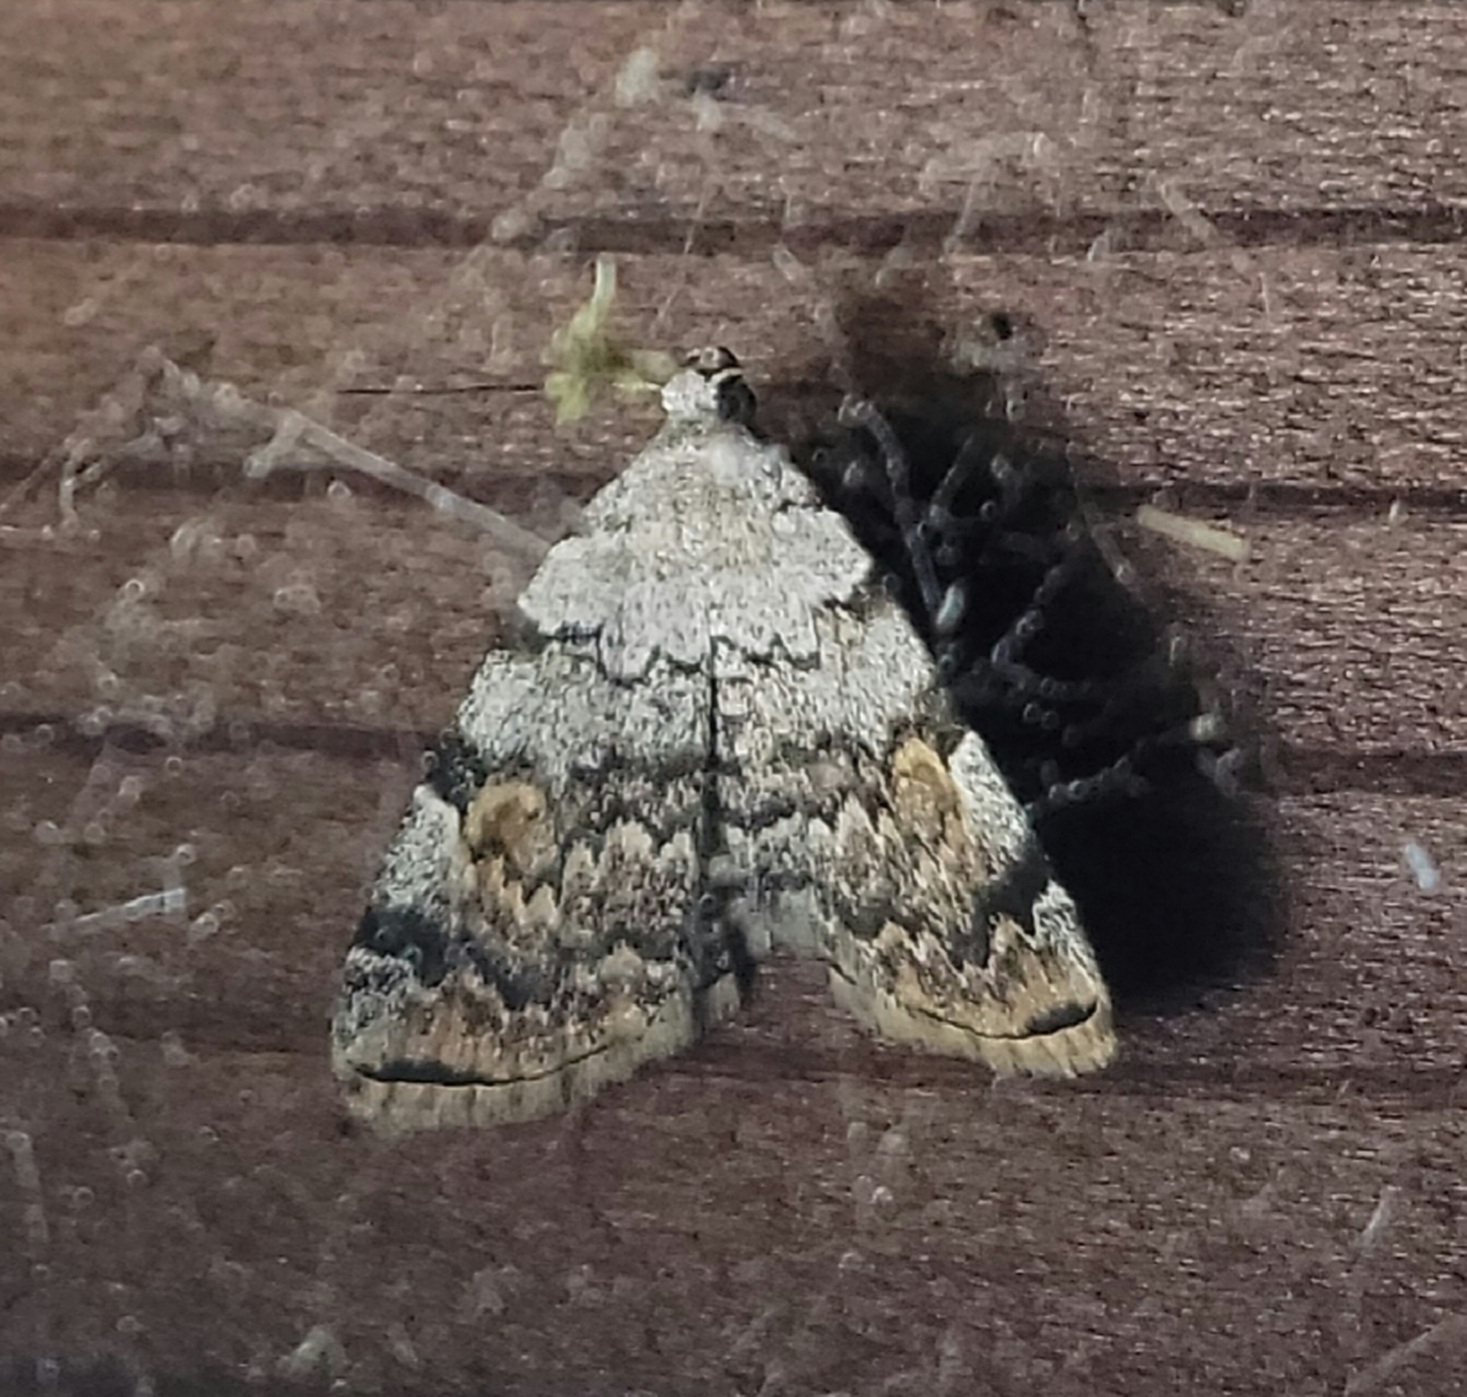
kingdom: Animalia
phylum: Arthropoda
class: Insecta
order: Lepidoptera
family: Erebidae
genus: Idia
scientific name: Idia americalis
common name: American idia moth
